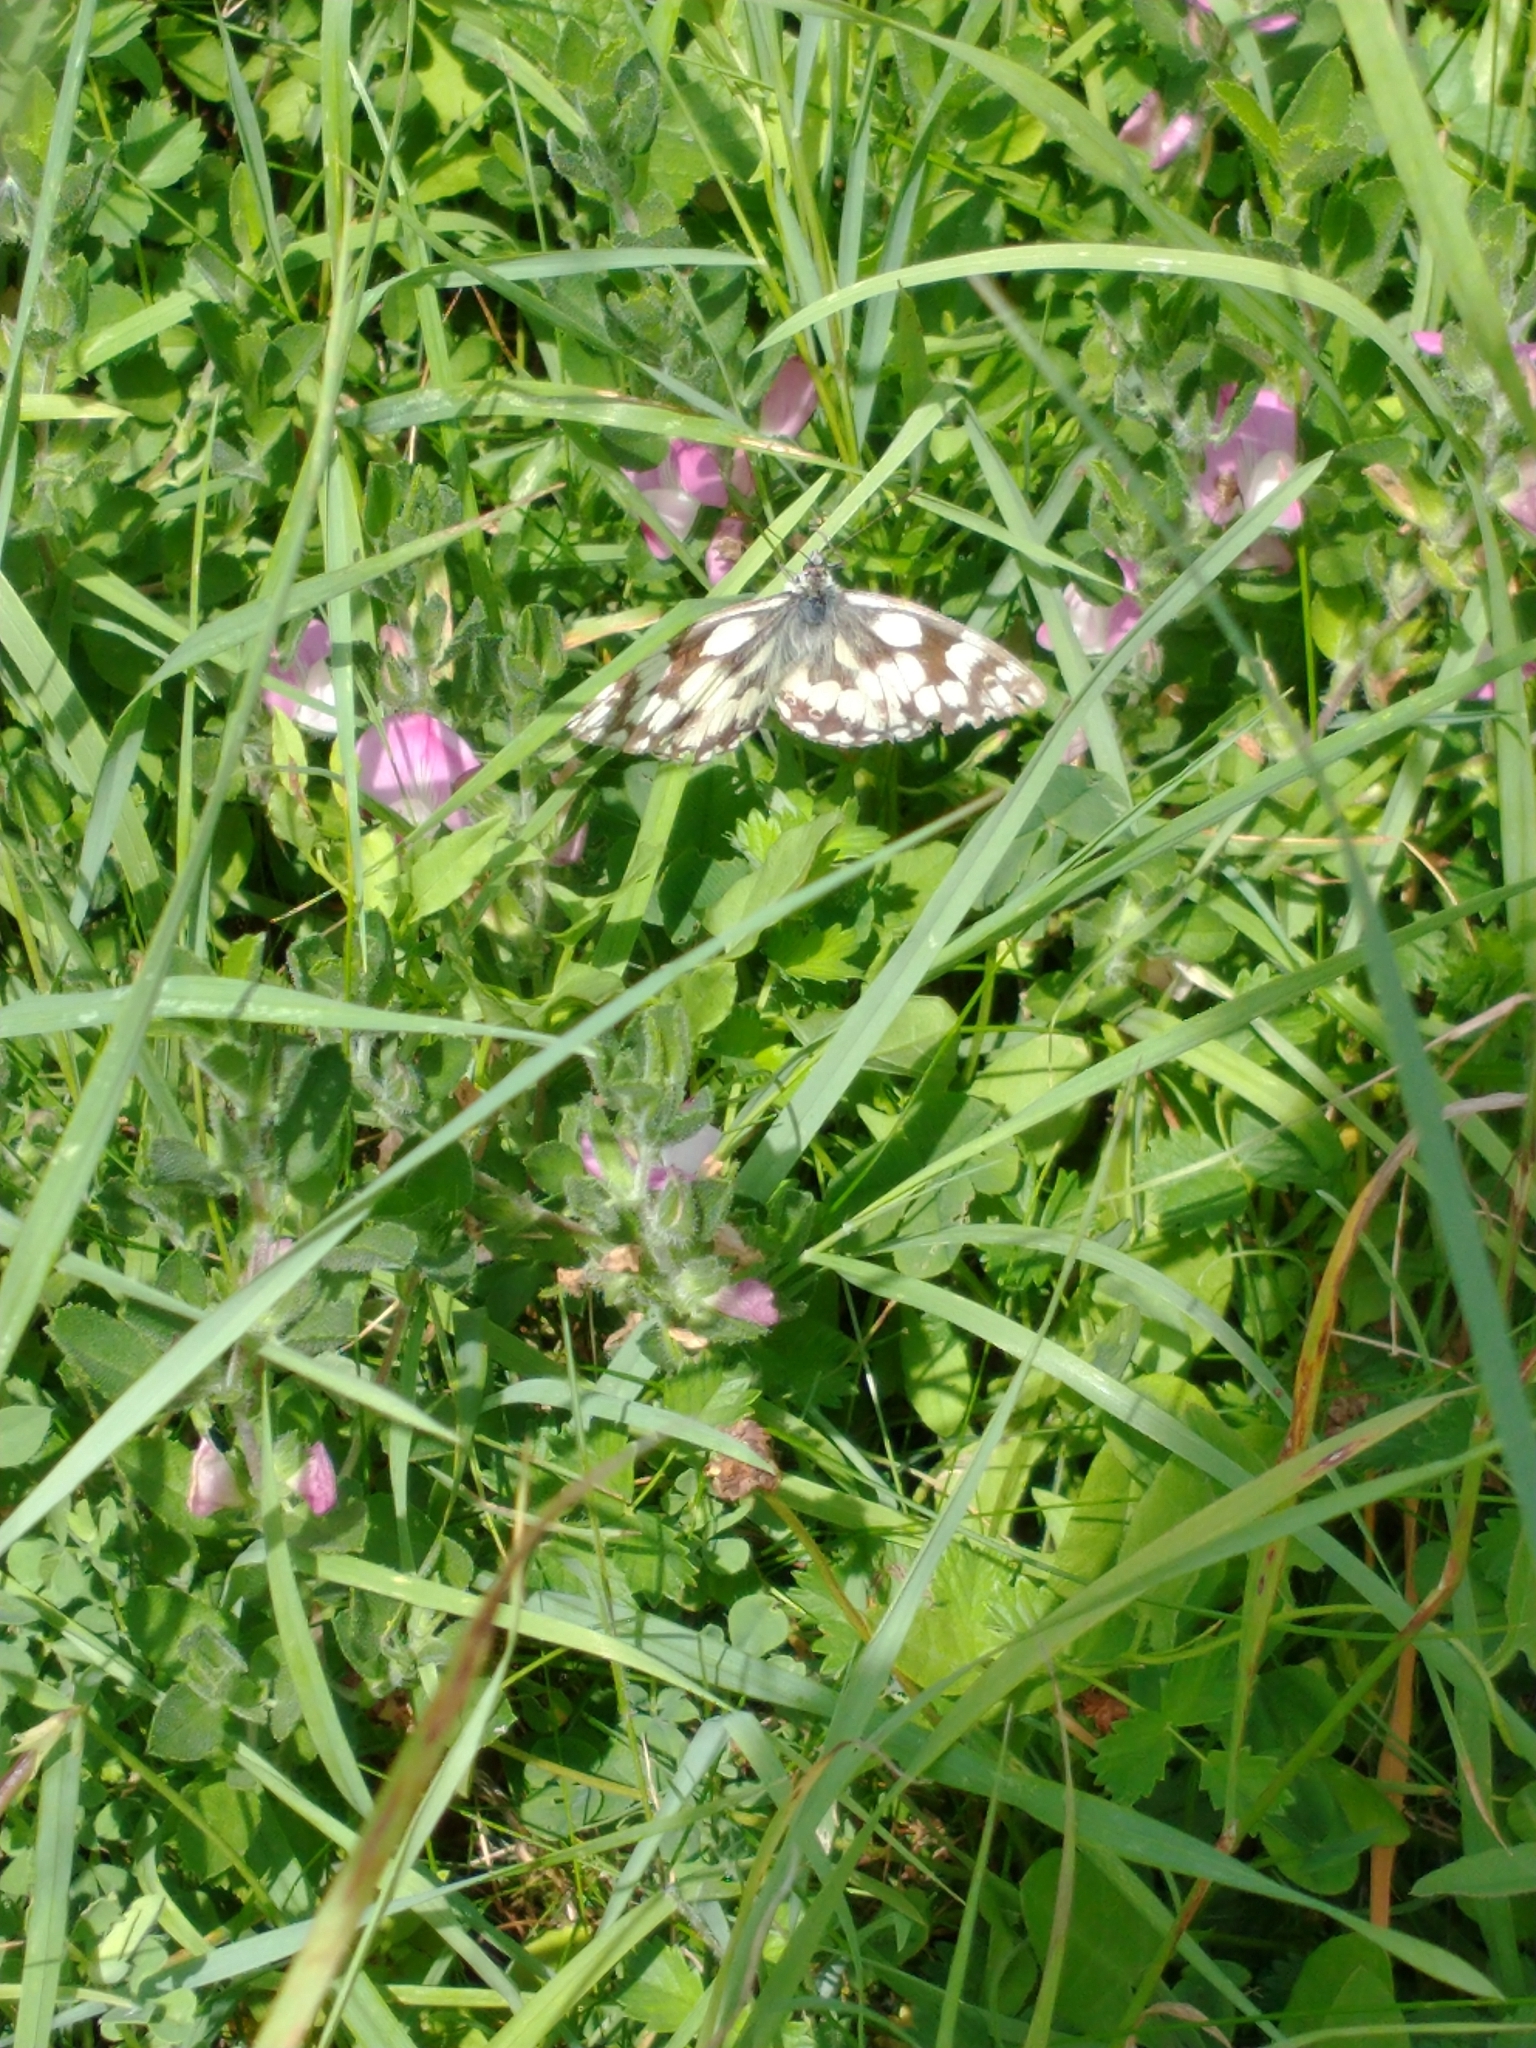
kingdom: Animalia
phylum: Arthropoda
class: Insecta
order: Lepidoptera
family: Nymphalidae
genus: Melanargia
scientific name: Melanargia galathea
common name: Marbled white
